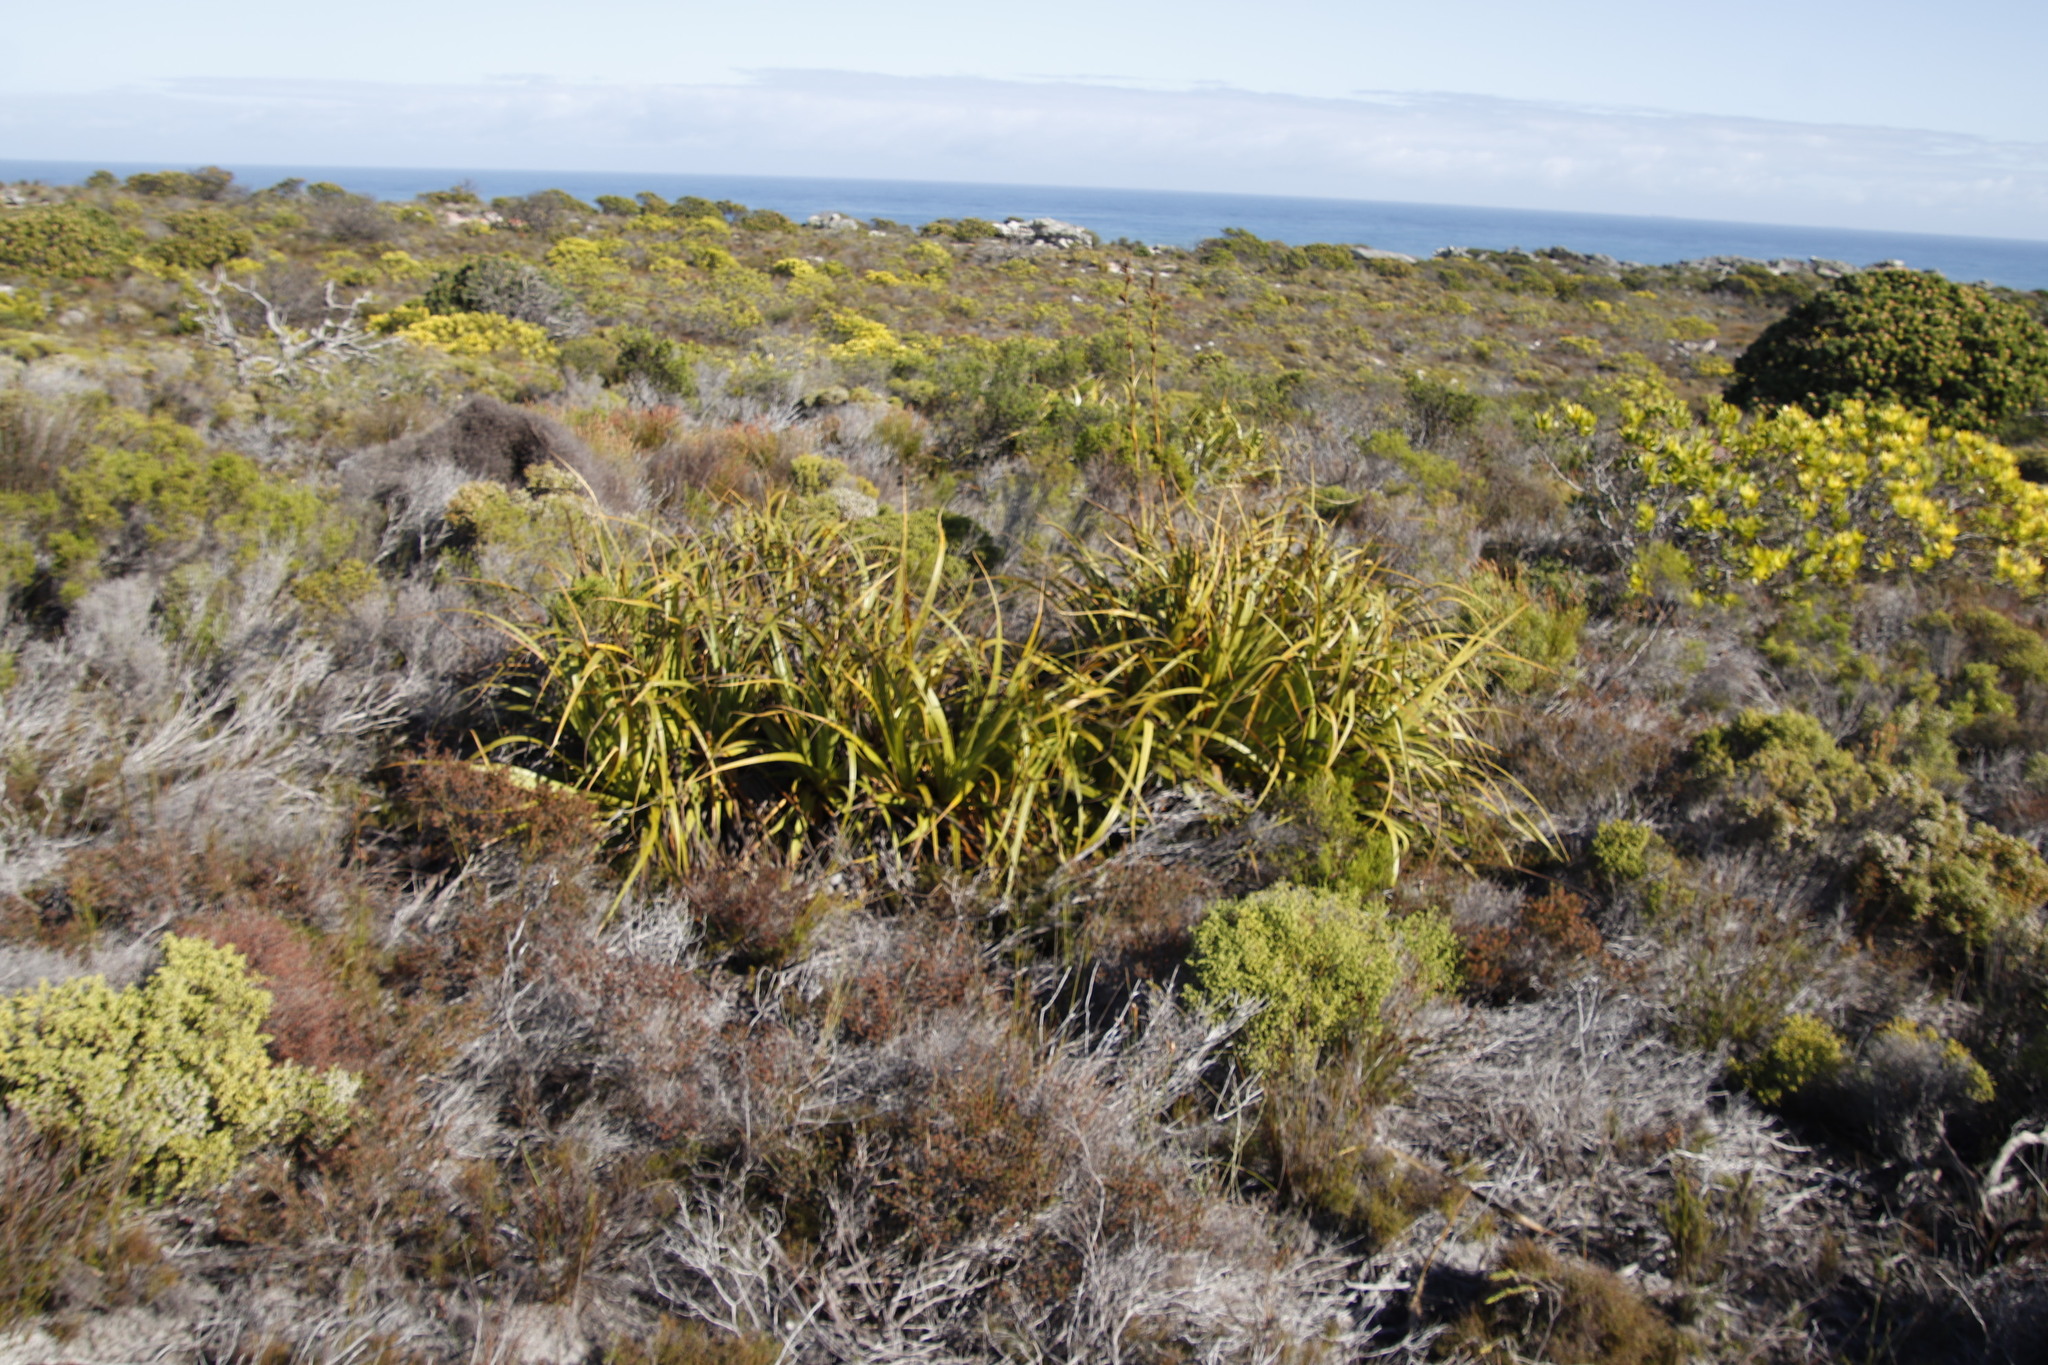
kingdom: Plantae
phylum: Tracheophyta
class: Liliopsida
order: Poales
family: Cyperaceae
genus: Tetraria
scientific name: Tetraria thermalis
